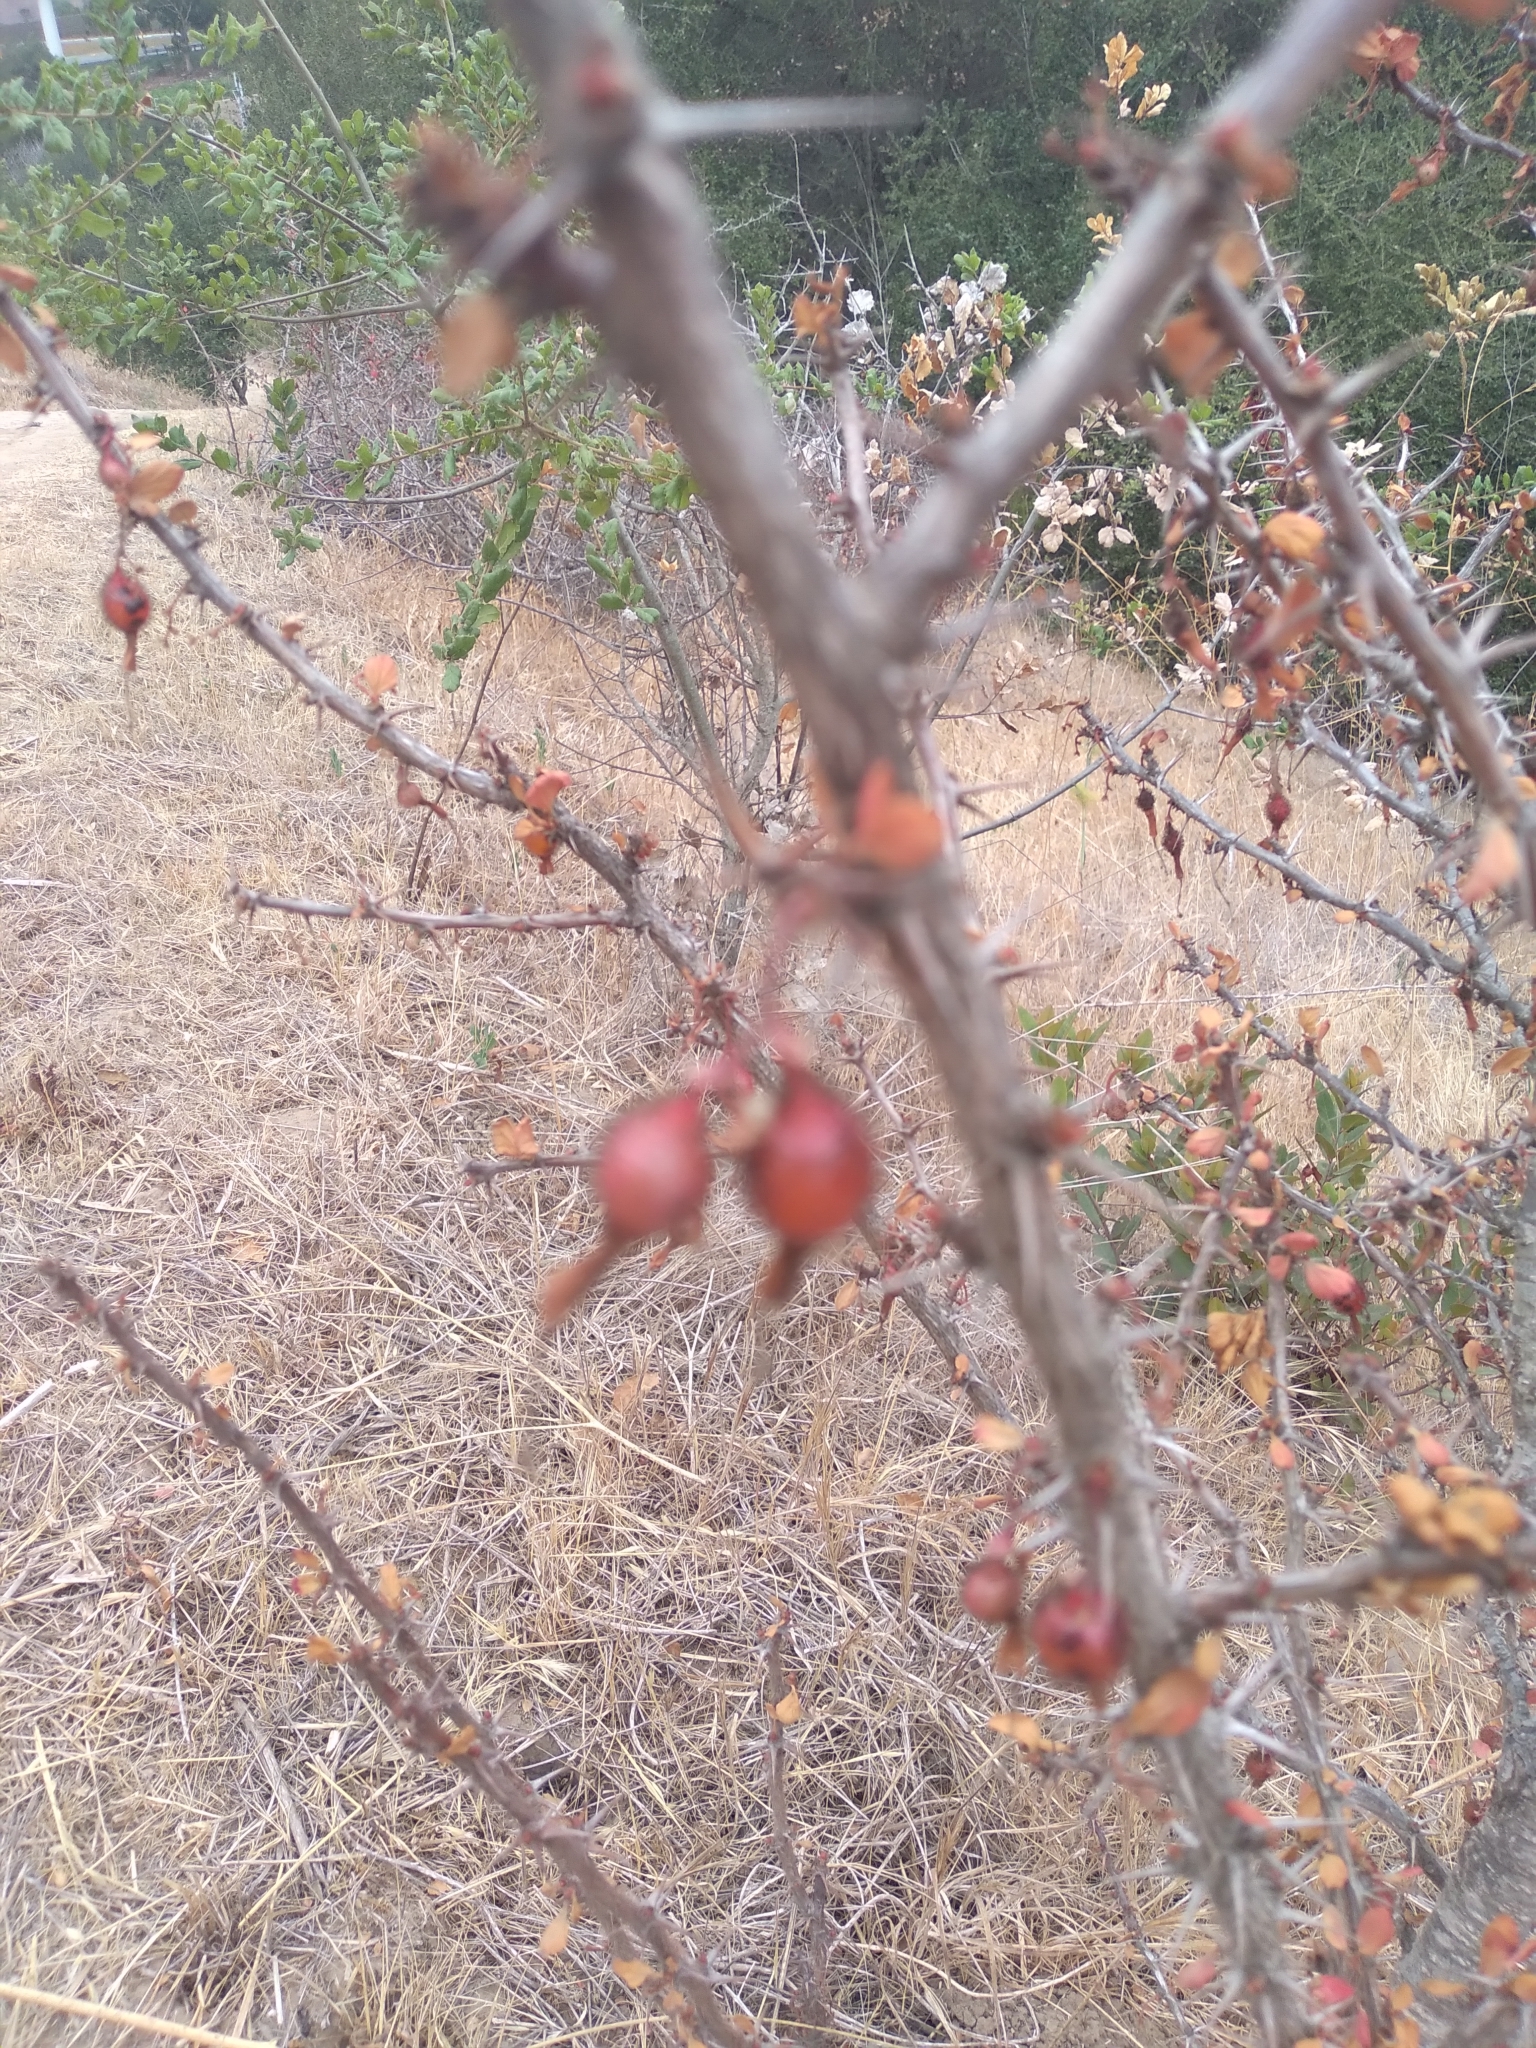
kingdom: Plantae
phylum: Tracheophyta
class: Magnoliopsida
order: Saxifragales
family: Grossulariaceae
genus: Ribes
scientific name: Ribes speciosum
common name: Fuchsia-flower gooseberry
